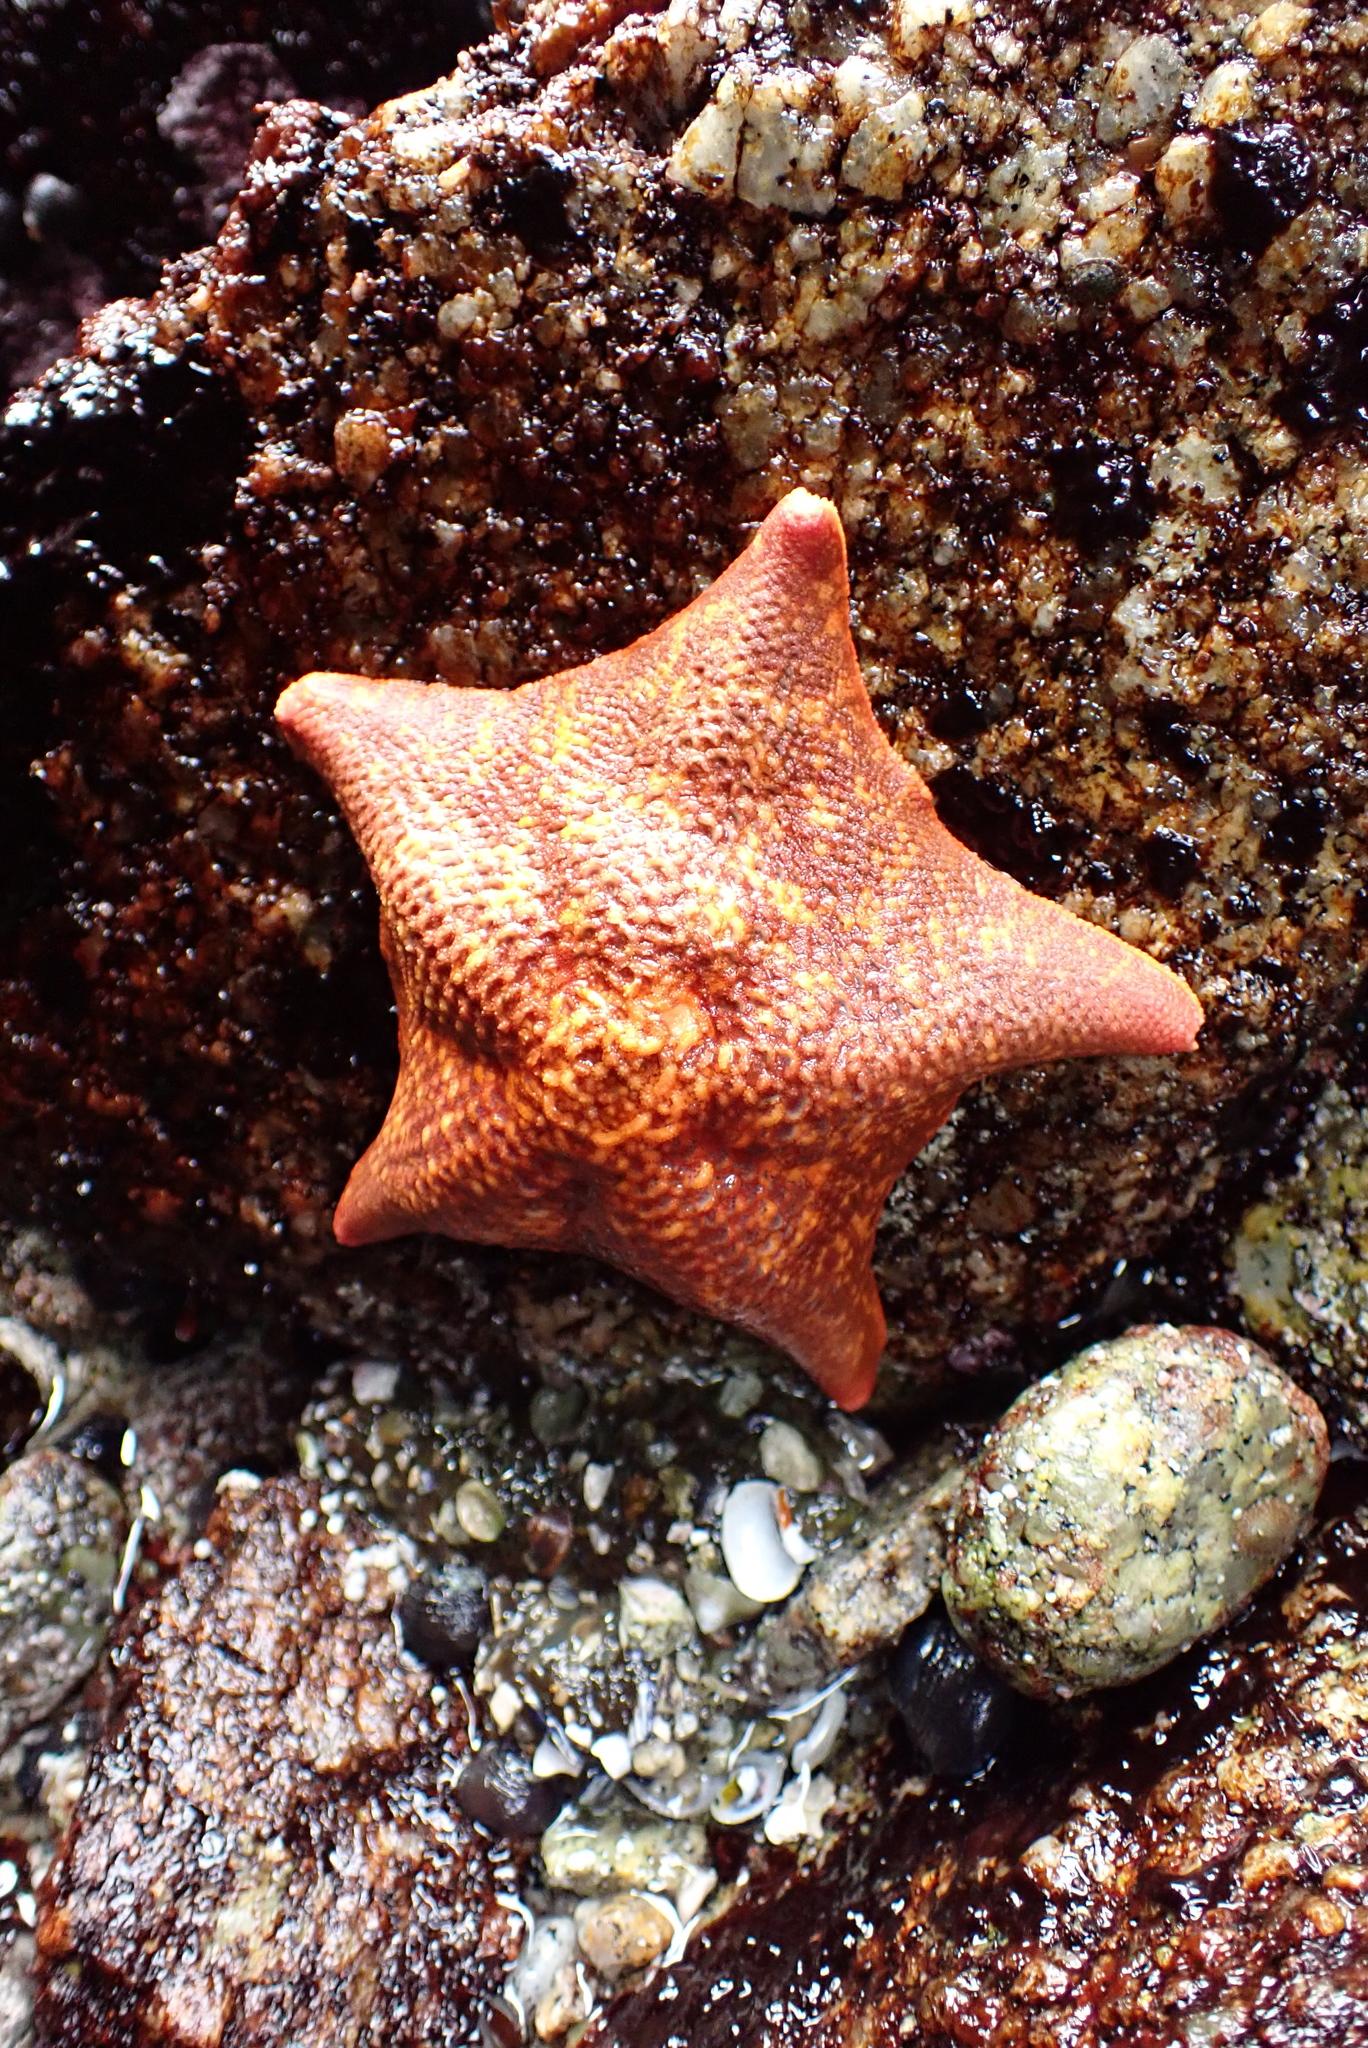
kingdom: Animalia
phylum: Echinodermata
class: Asteroidea
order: Valvatida
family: Asterinidae
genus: Patiria
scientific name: Patiria miniata
